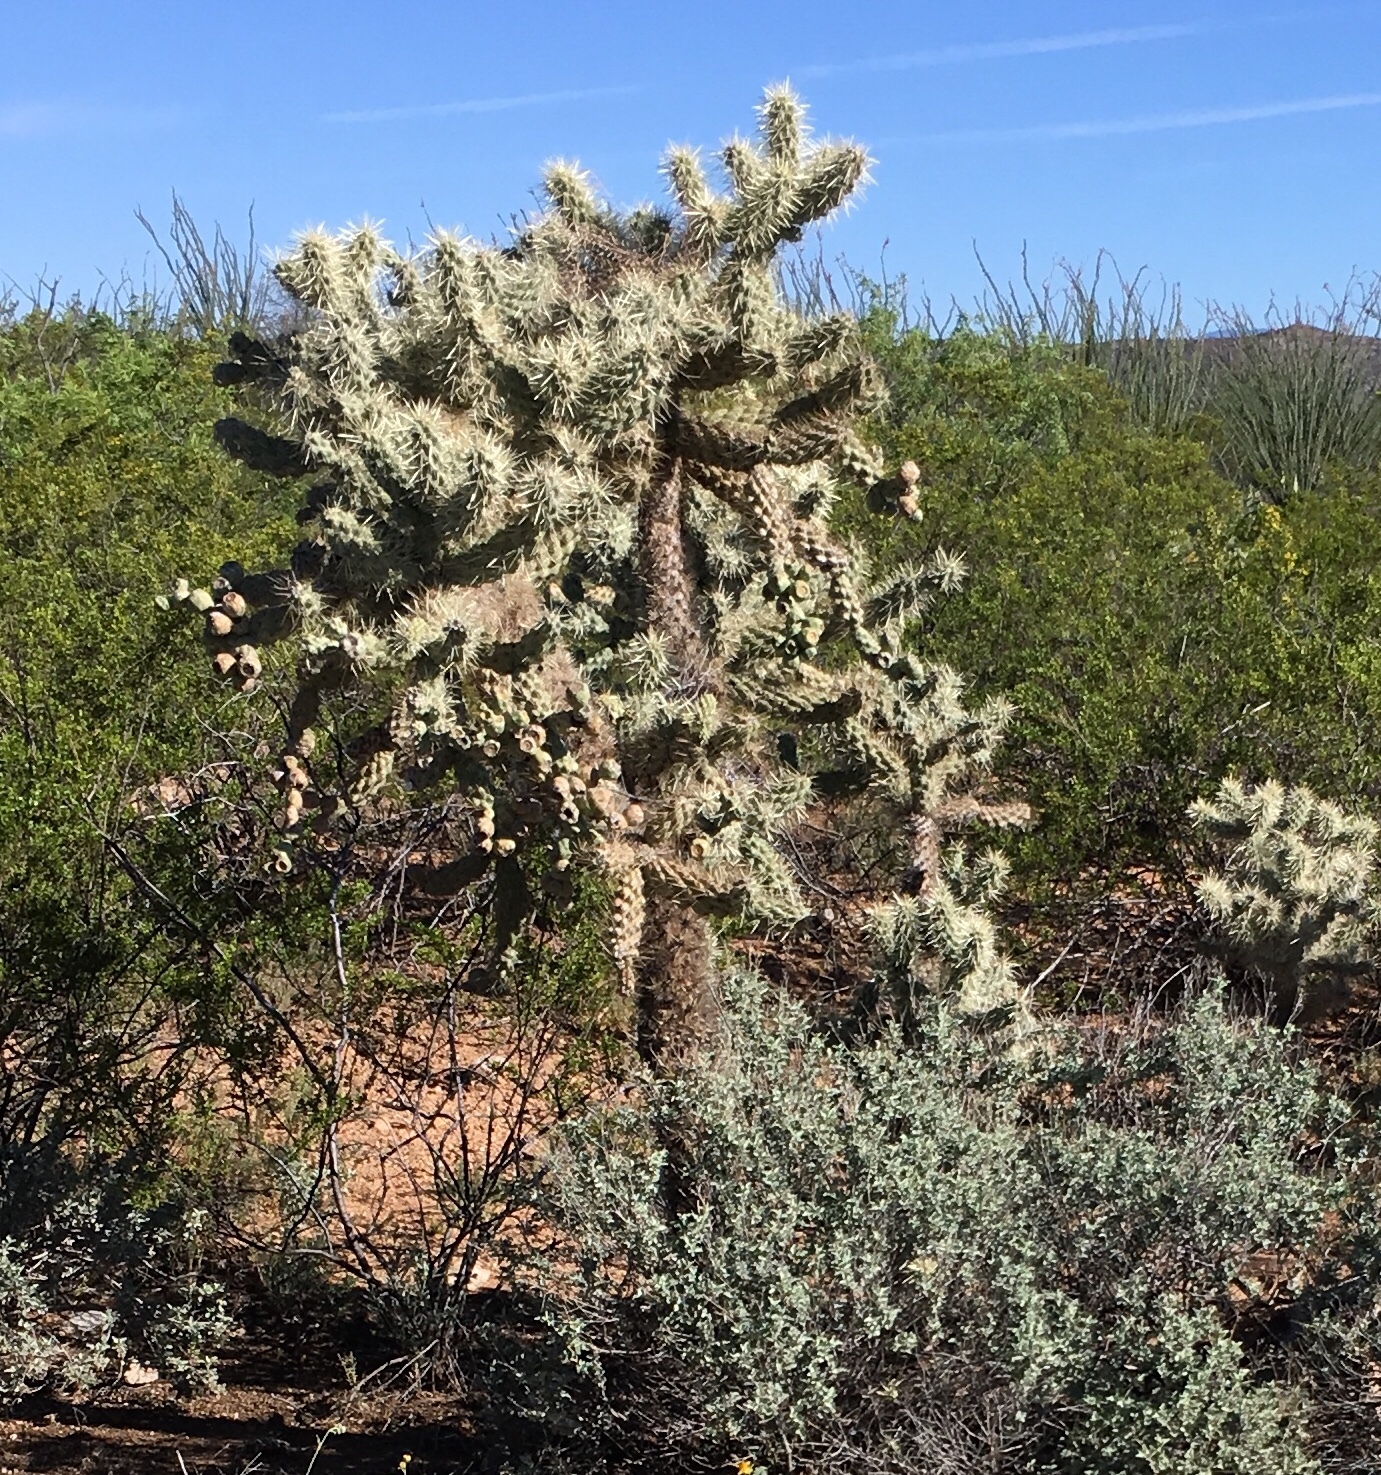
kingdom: Plantae
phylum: Tracheophyta
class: Magnoliopsida
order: Caryophyllales
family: Cactaceae
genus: Cylindropuntia
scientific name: Cylindropuntia fulgida
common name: Jumping cholla
